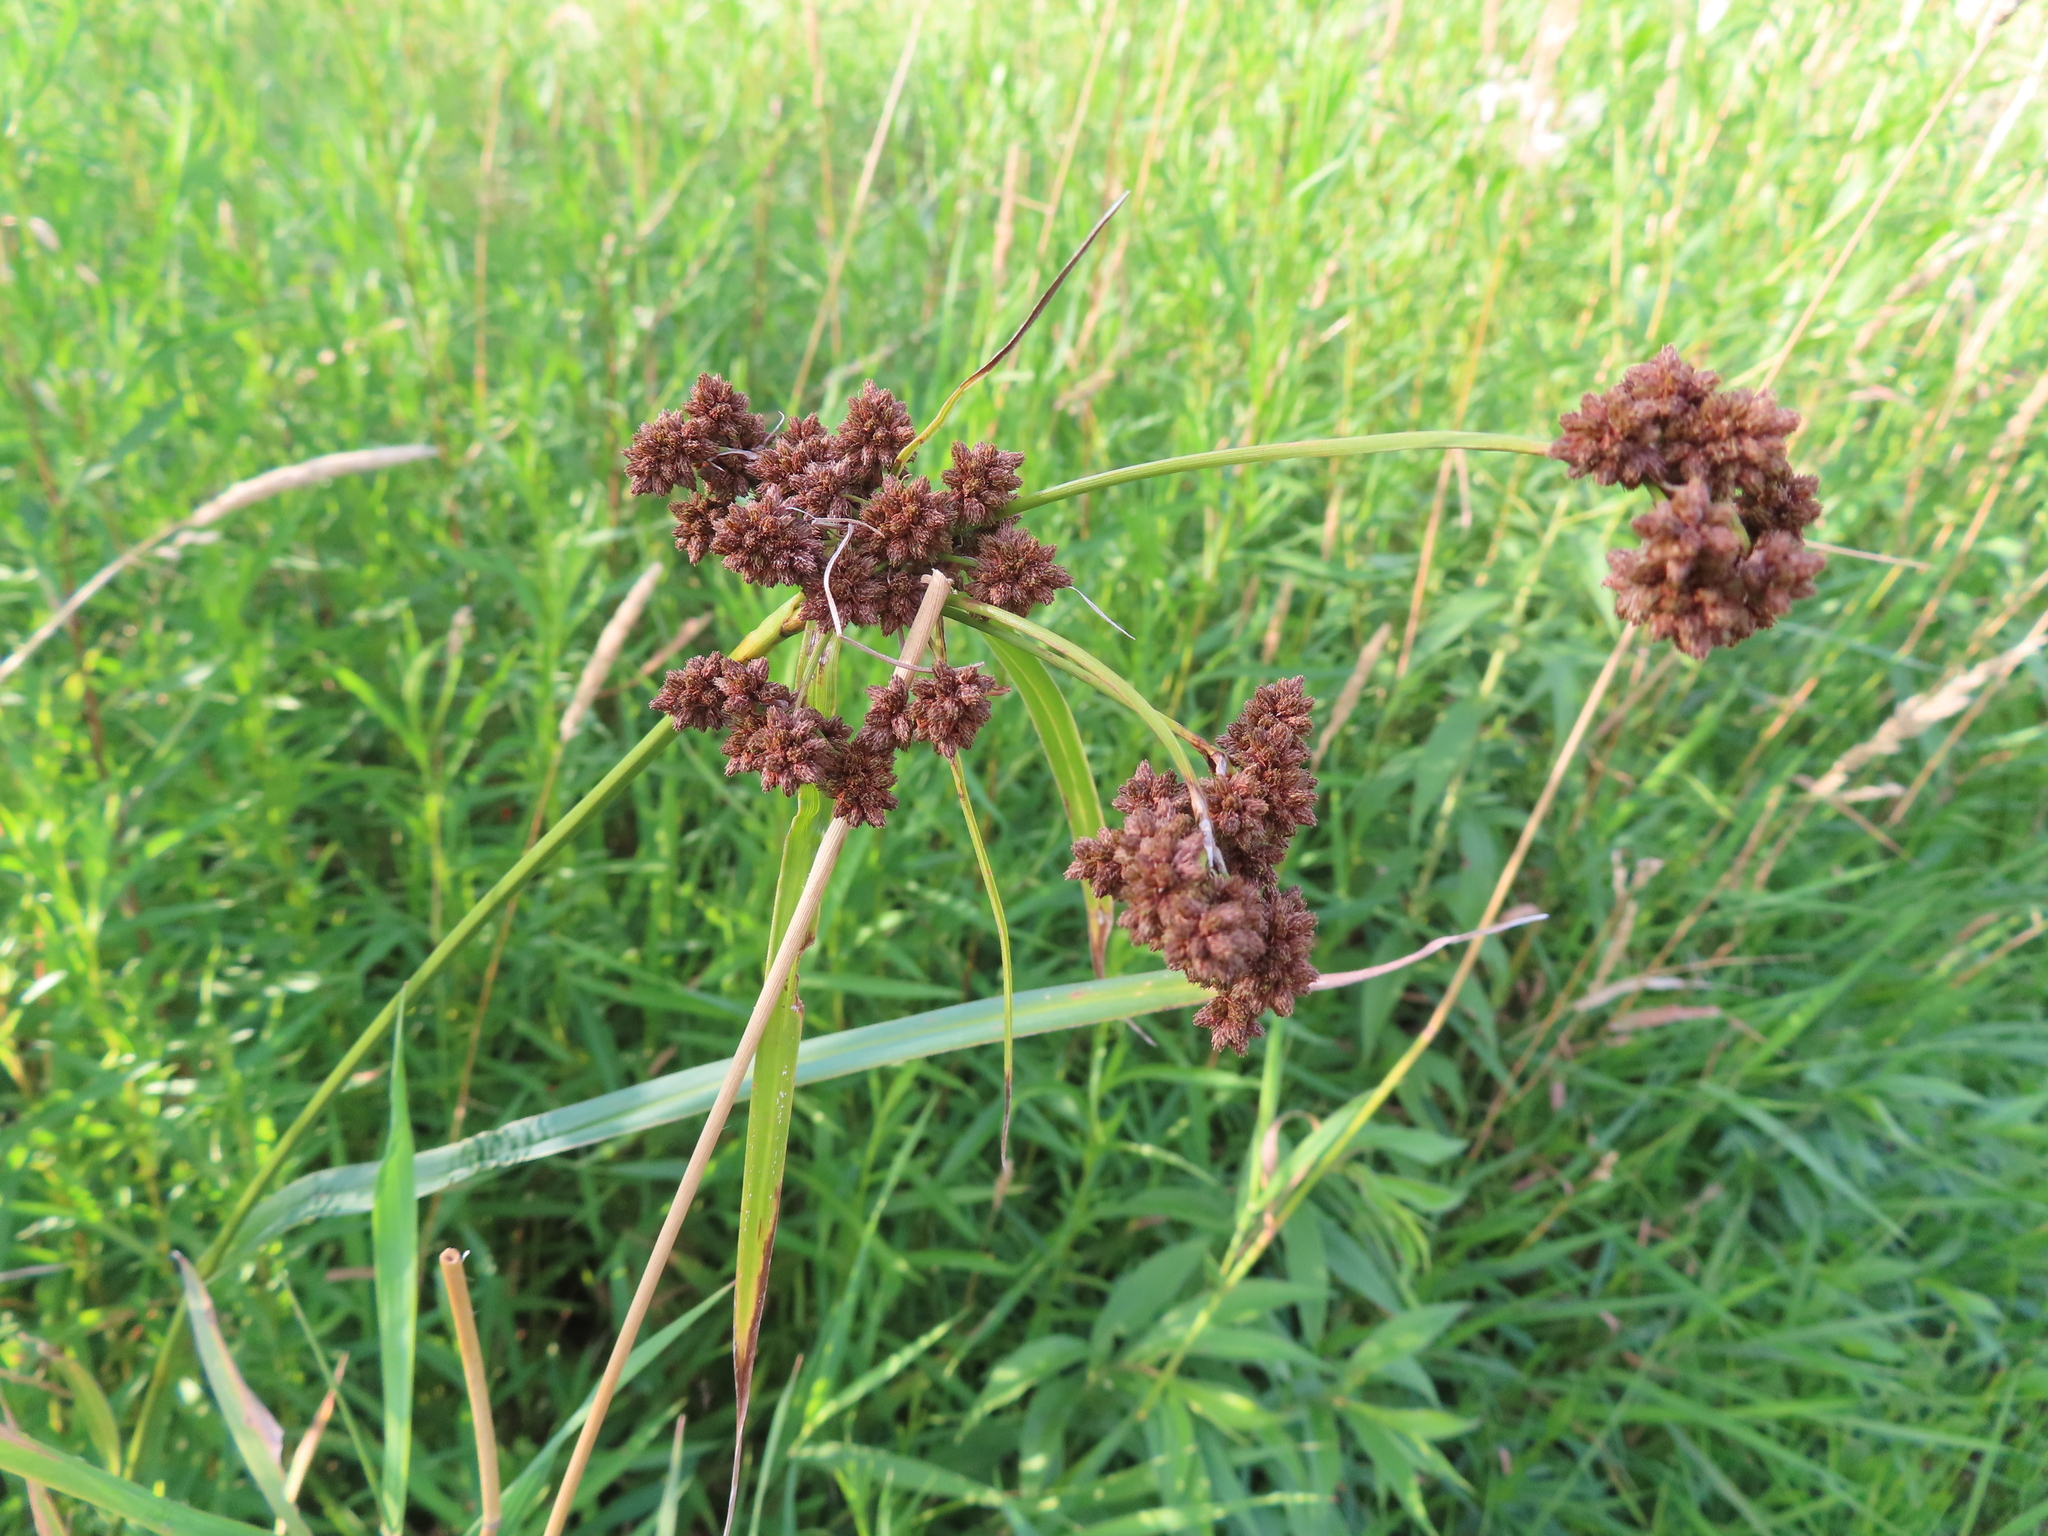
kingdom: Plantae
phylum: Tracheophyta
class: Liliopsida
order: Poales
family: Cyperaceae
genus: Scirpus
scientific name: Scirpus atrovirens
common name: Black bulrush
